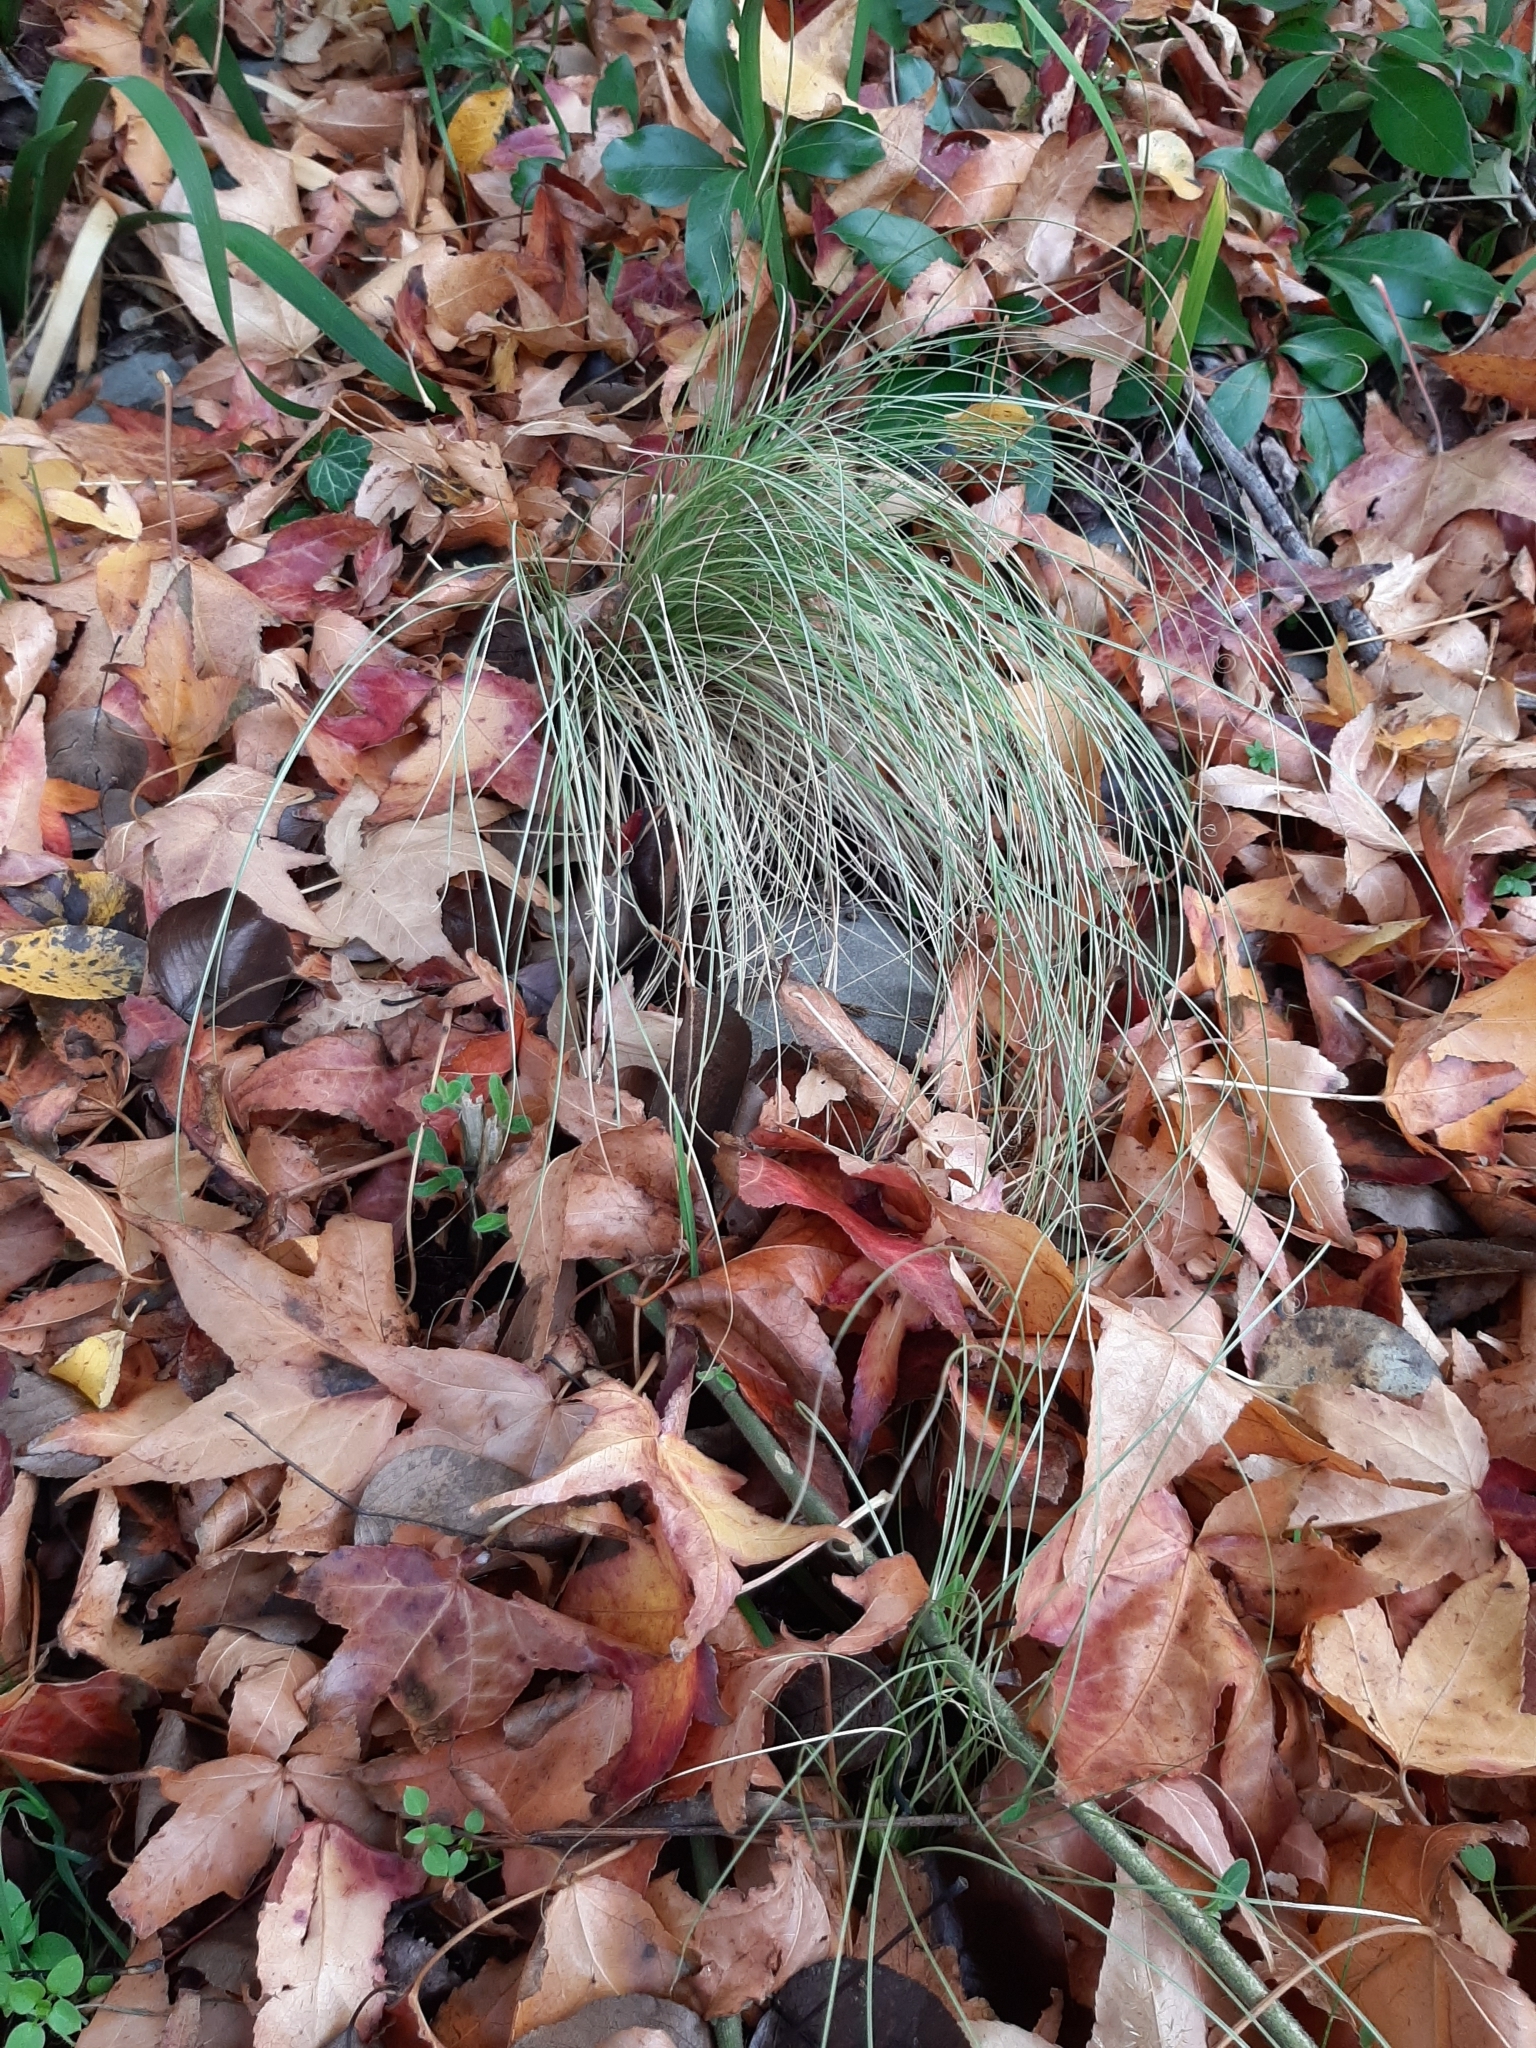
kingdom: Plantae
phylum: Tracheophyta
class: Liliopsida
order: Poales
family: Cyperaceae
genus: Carex
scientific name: Carex comans
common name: Longwood tussock
